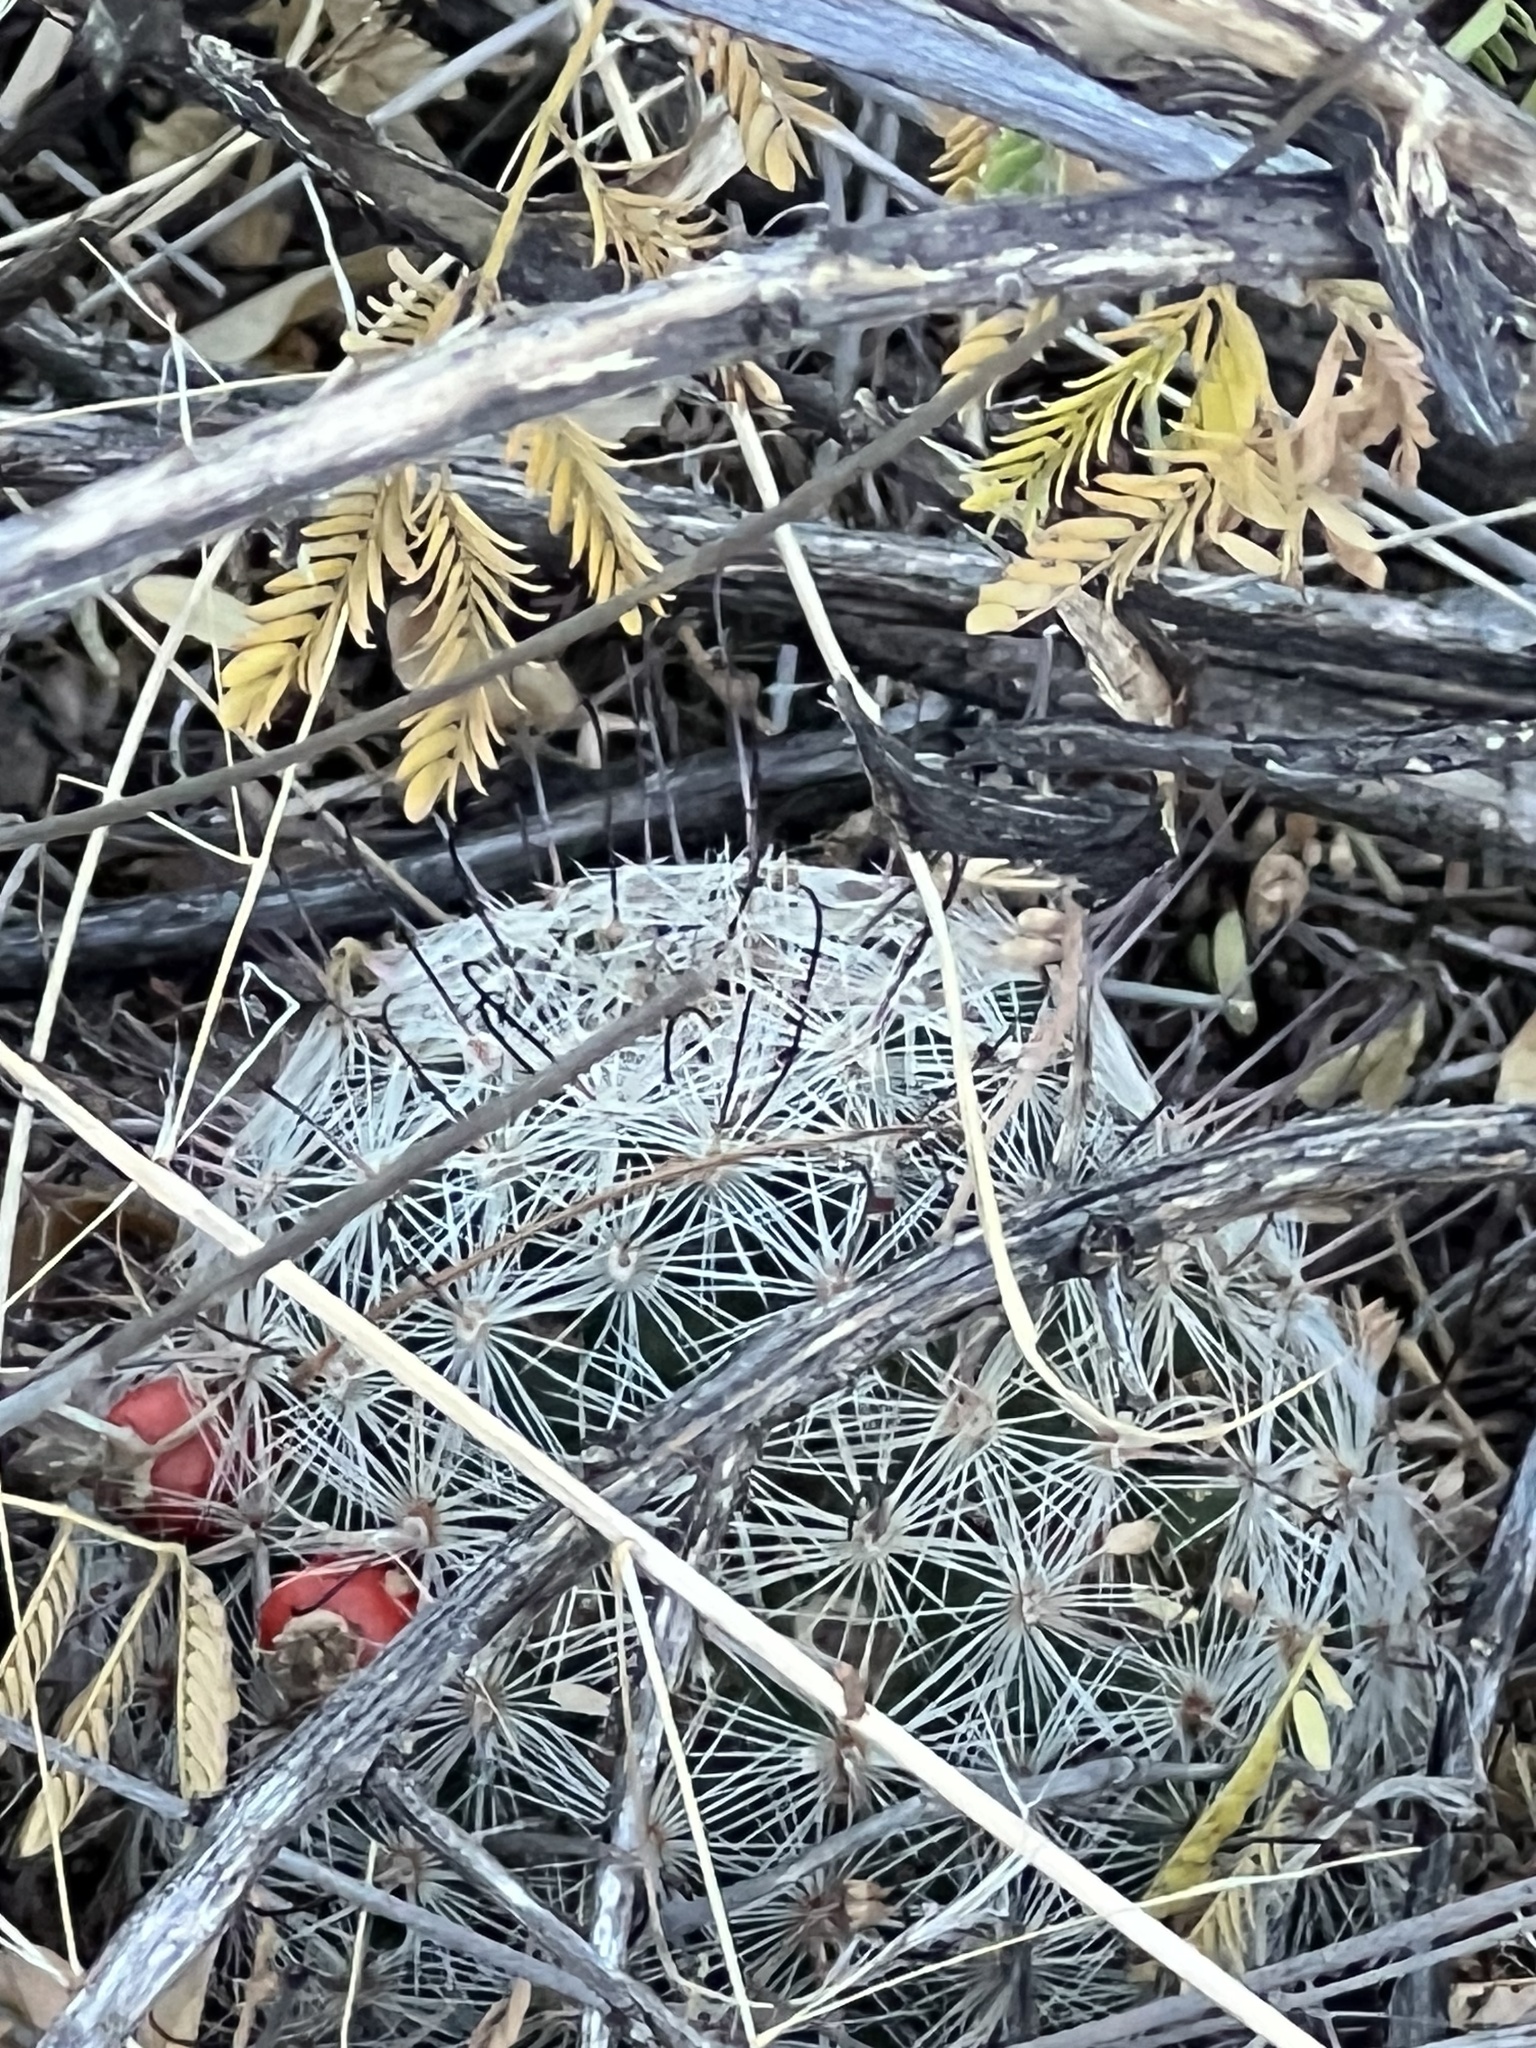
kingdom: Plantae
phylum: Tracheophyta
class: Magnoliopsida
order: Caryophyllales
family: Cactaceae
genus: Cochemiea
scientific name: Cochemiea grahamii
